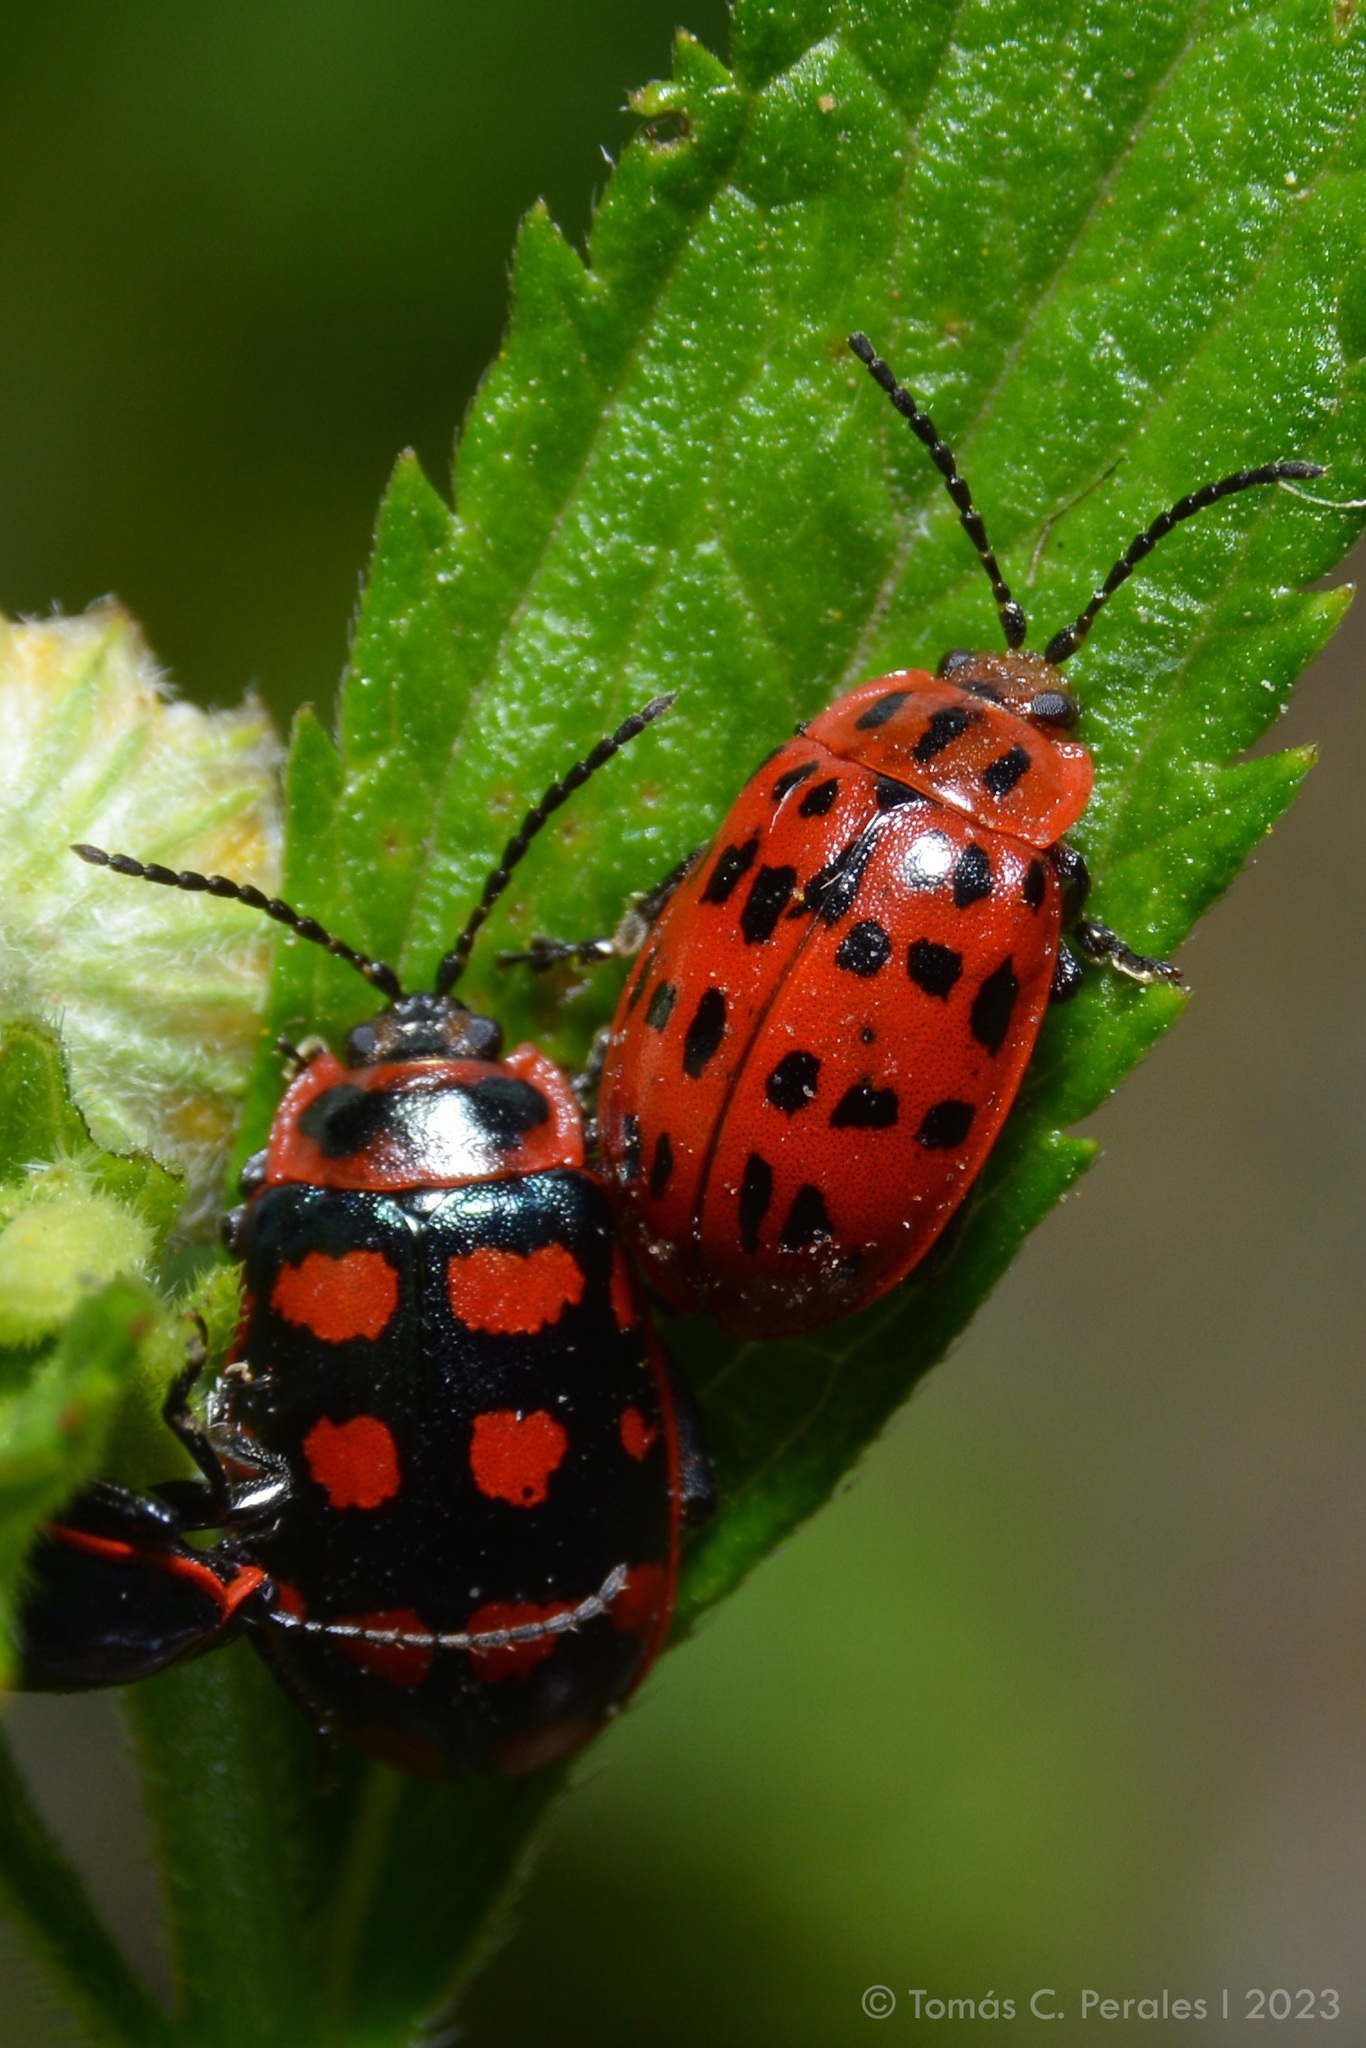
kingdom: Animalia
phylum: Arthropoda
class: Insecta
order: Coleoptera
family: Chrysomelidae
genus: Alagoasa
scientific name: Alagoasa
